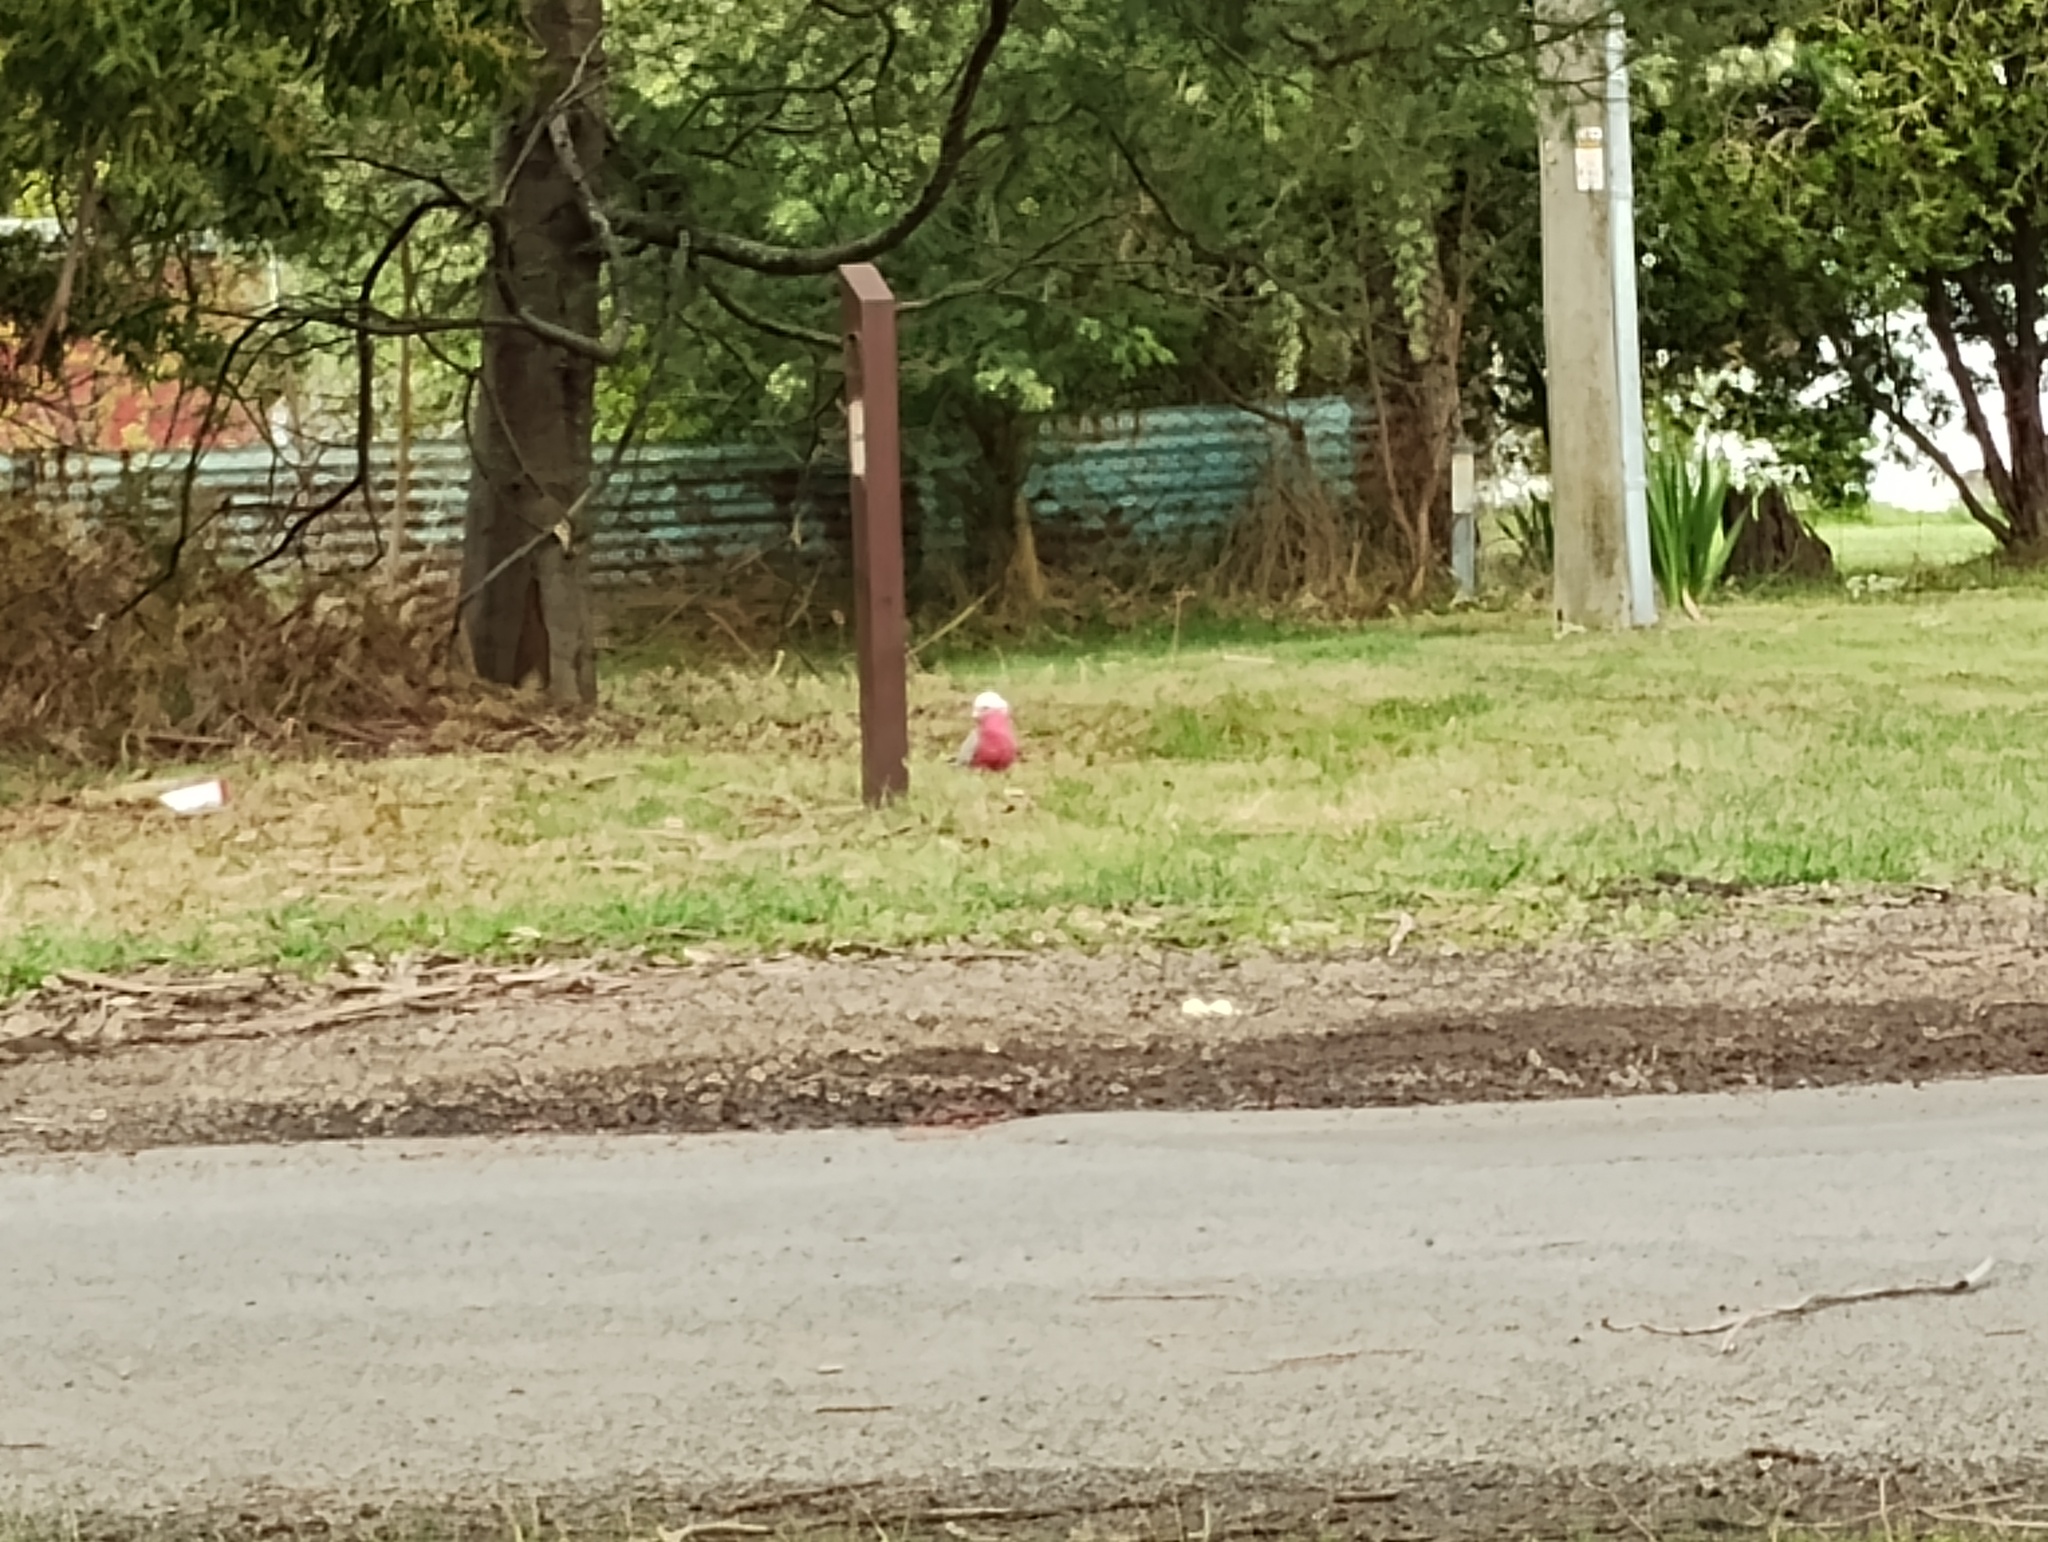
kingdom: Animalia
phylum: Chordata
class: Aves
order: Psittaciformes
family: Psittacidae
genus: Eolophus
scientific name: Eolophus roseicapilla
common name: Galah
